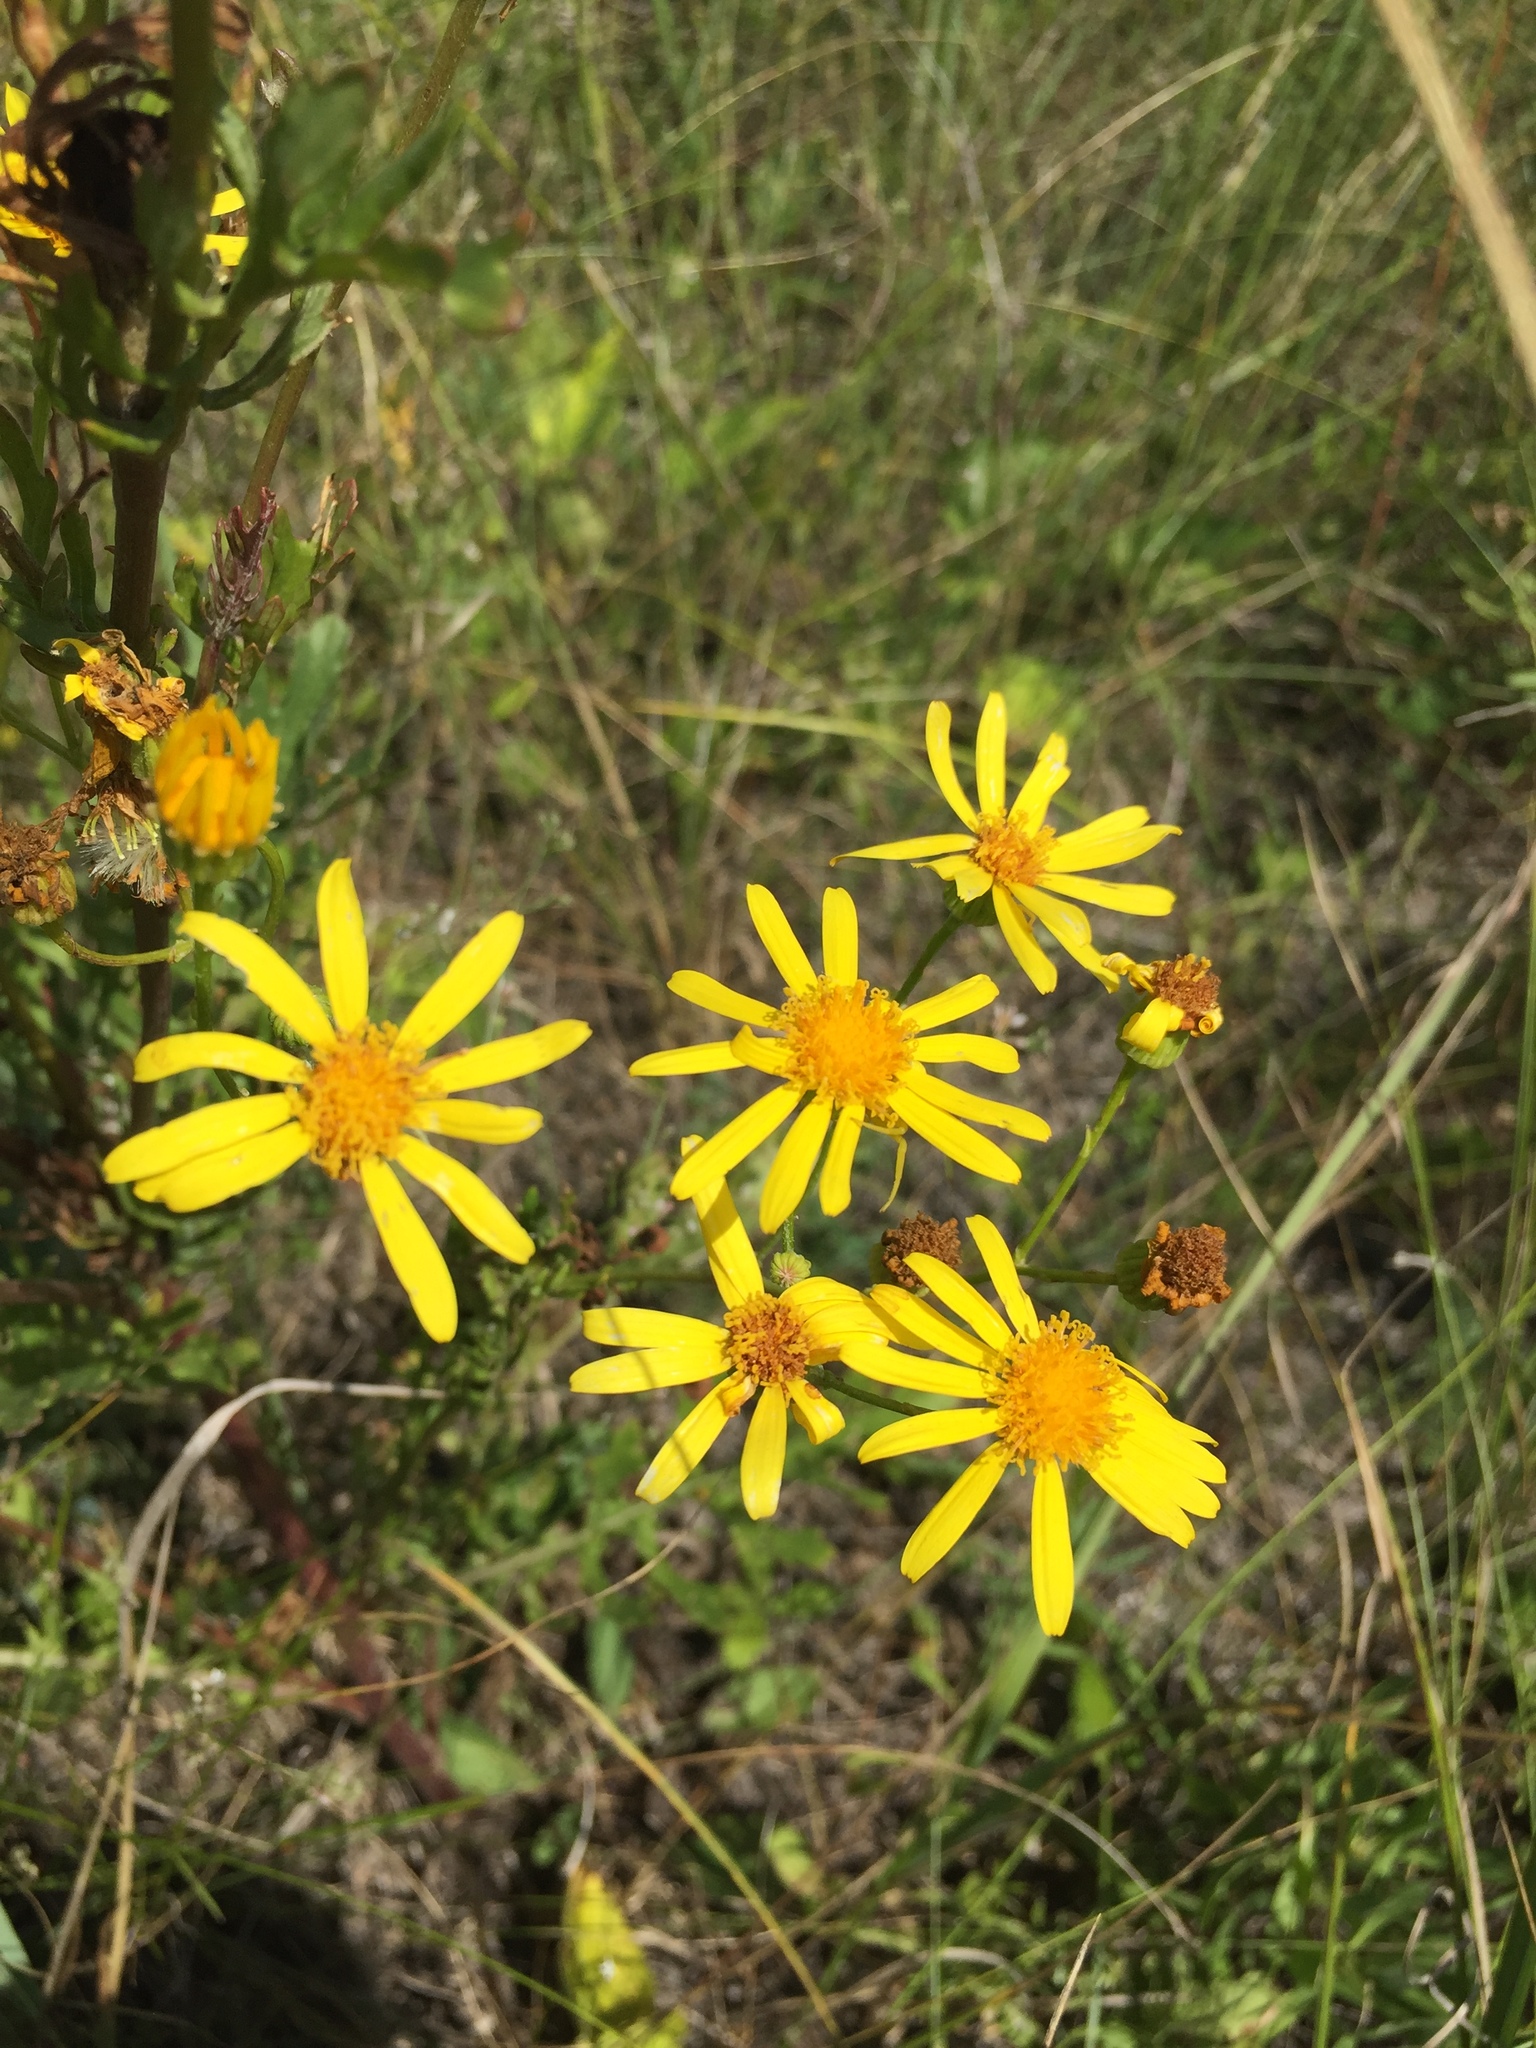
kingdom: Plantae
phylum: Tracheophyta
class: Magnoliopsida
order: Asterales
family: Asteraceae
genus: Jacobaea
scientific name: Jacobaea vulgaris
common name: Stinking willie
